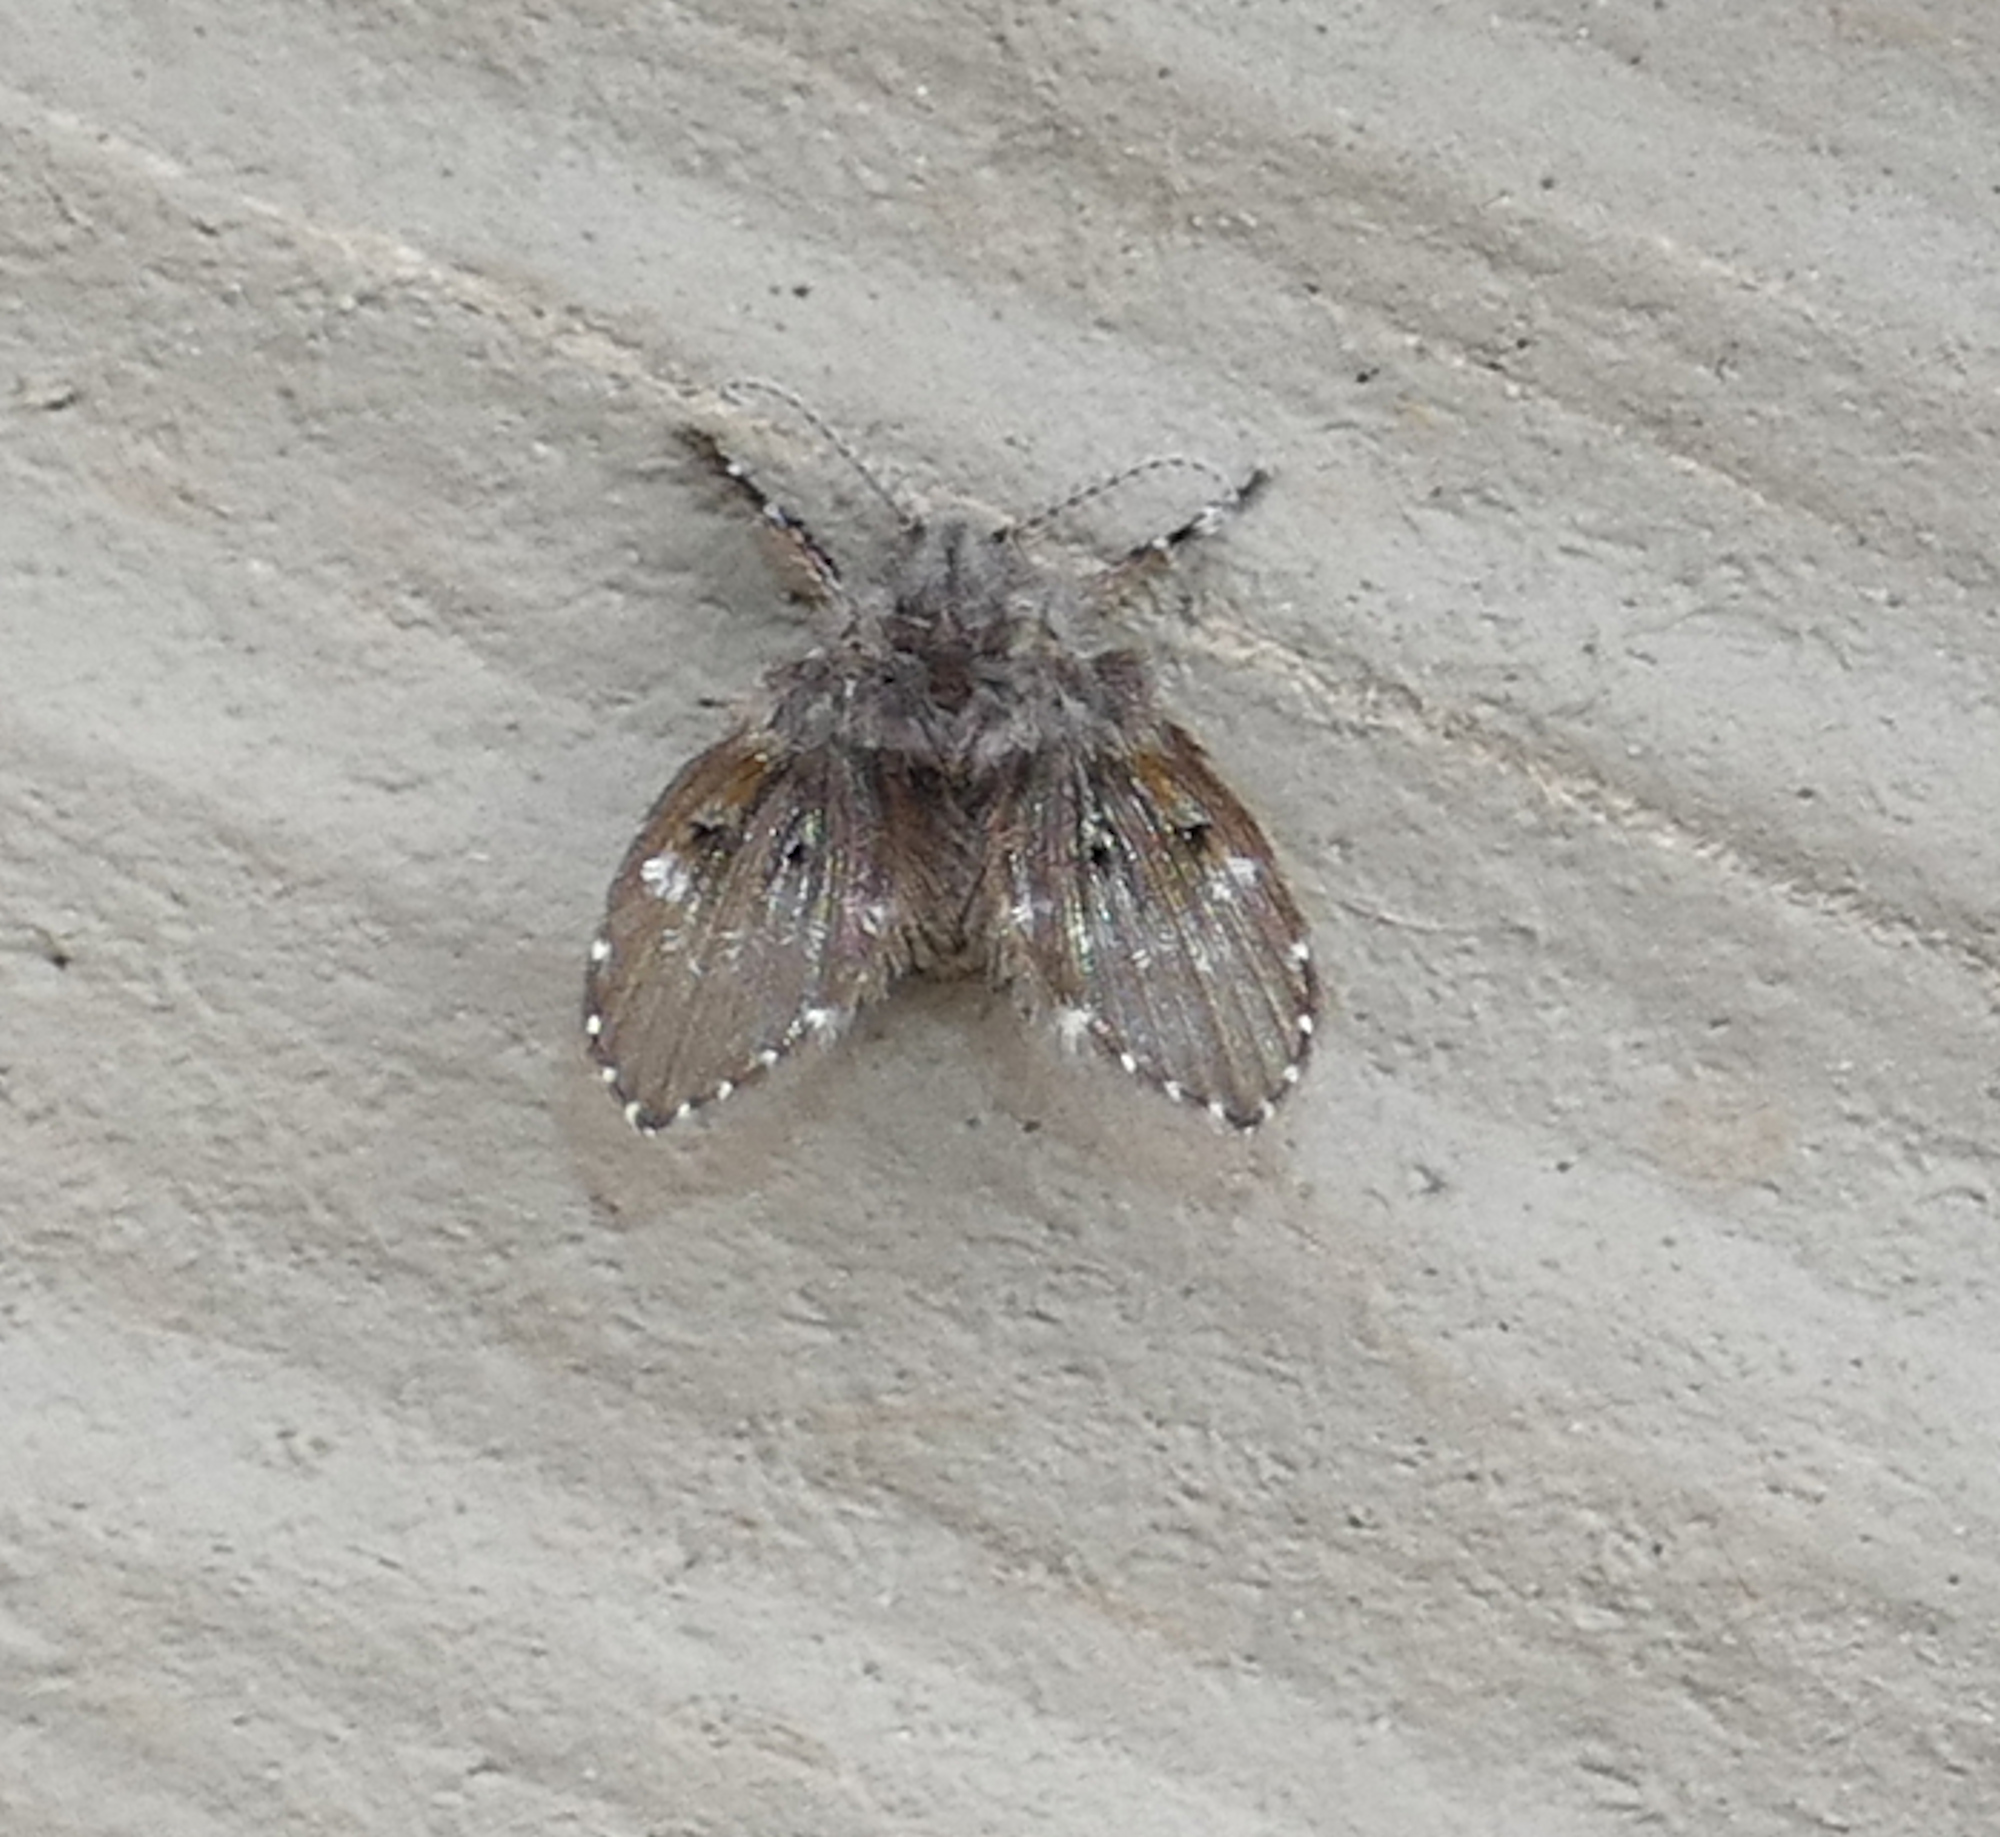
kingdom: Animalia
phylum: Arthropoda
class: Insecta
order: Diptera
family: Psychodidae
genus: Clogmia
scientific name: Clogmia albipunctatus
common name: White-spotted moth fly
